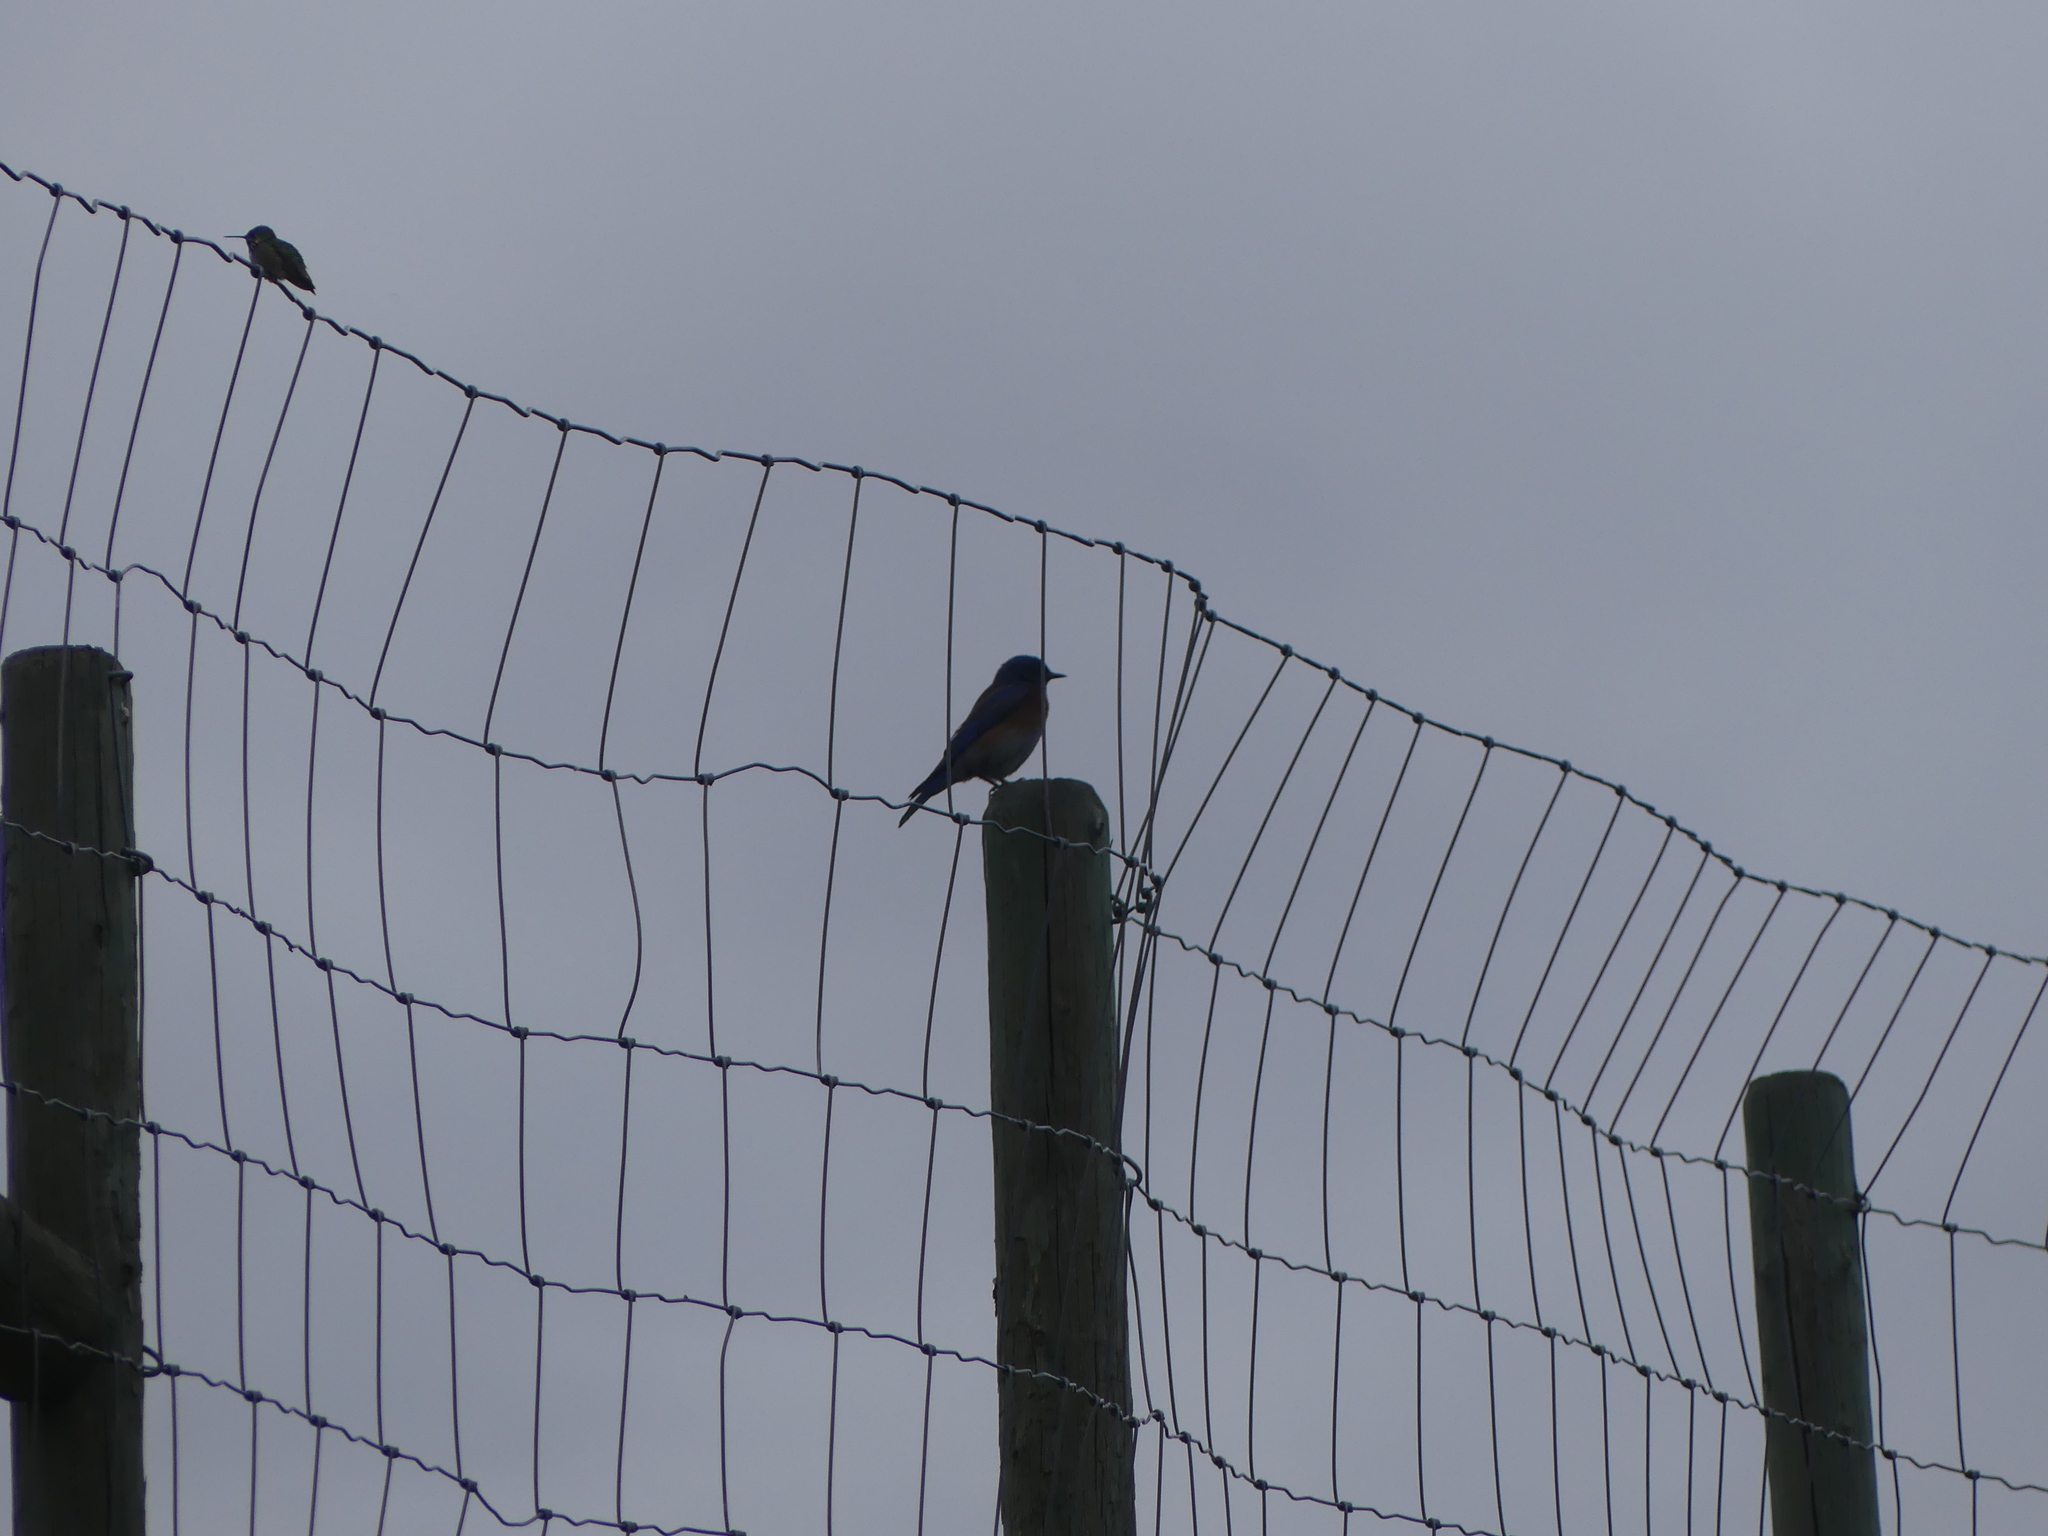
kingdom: Animalia
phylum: Chordata
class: Aves
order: Passeriformes
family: Turdidae
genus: Sialia
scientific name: Sialia mexicana
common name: Western bluebird
